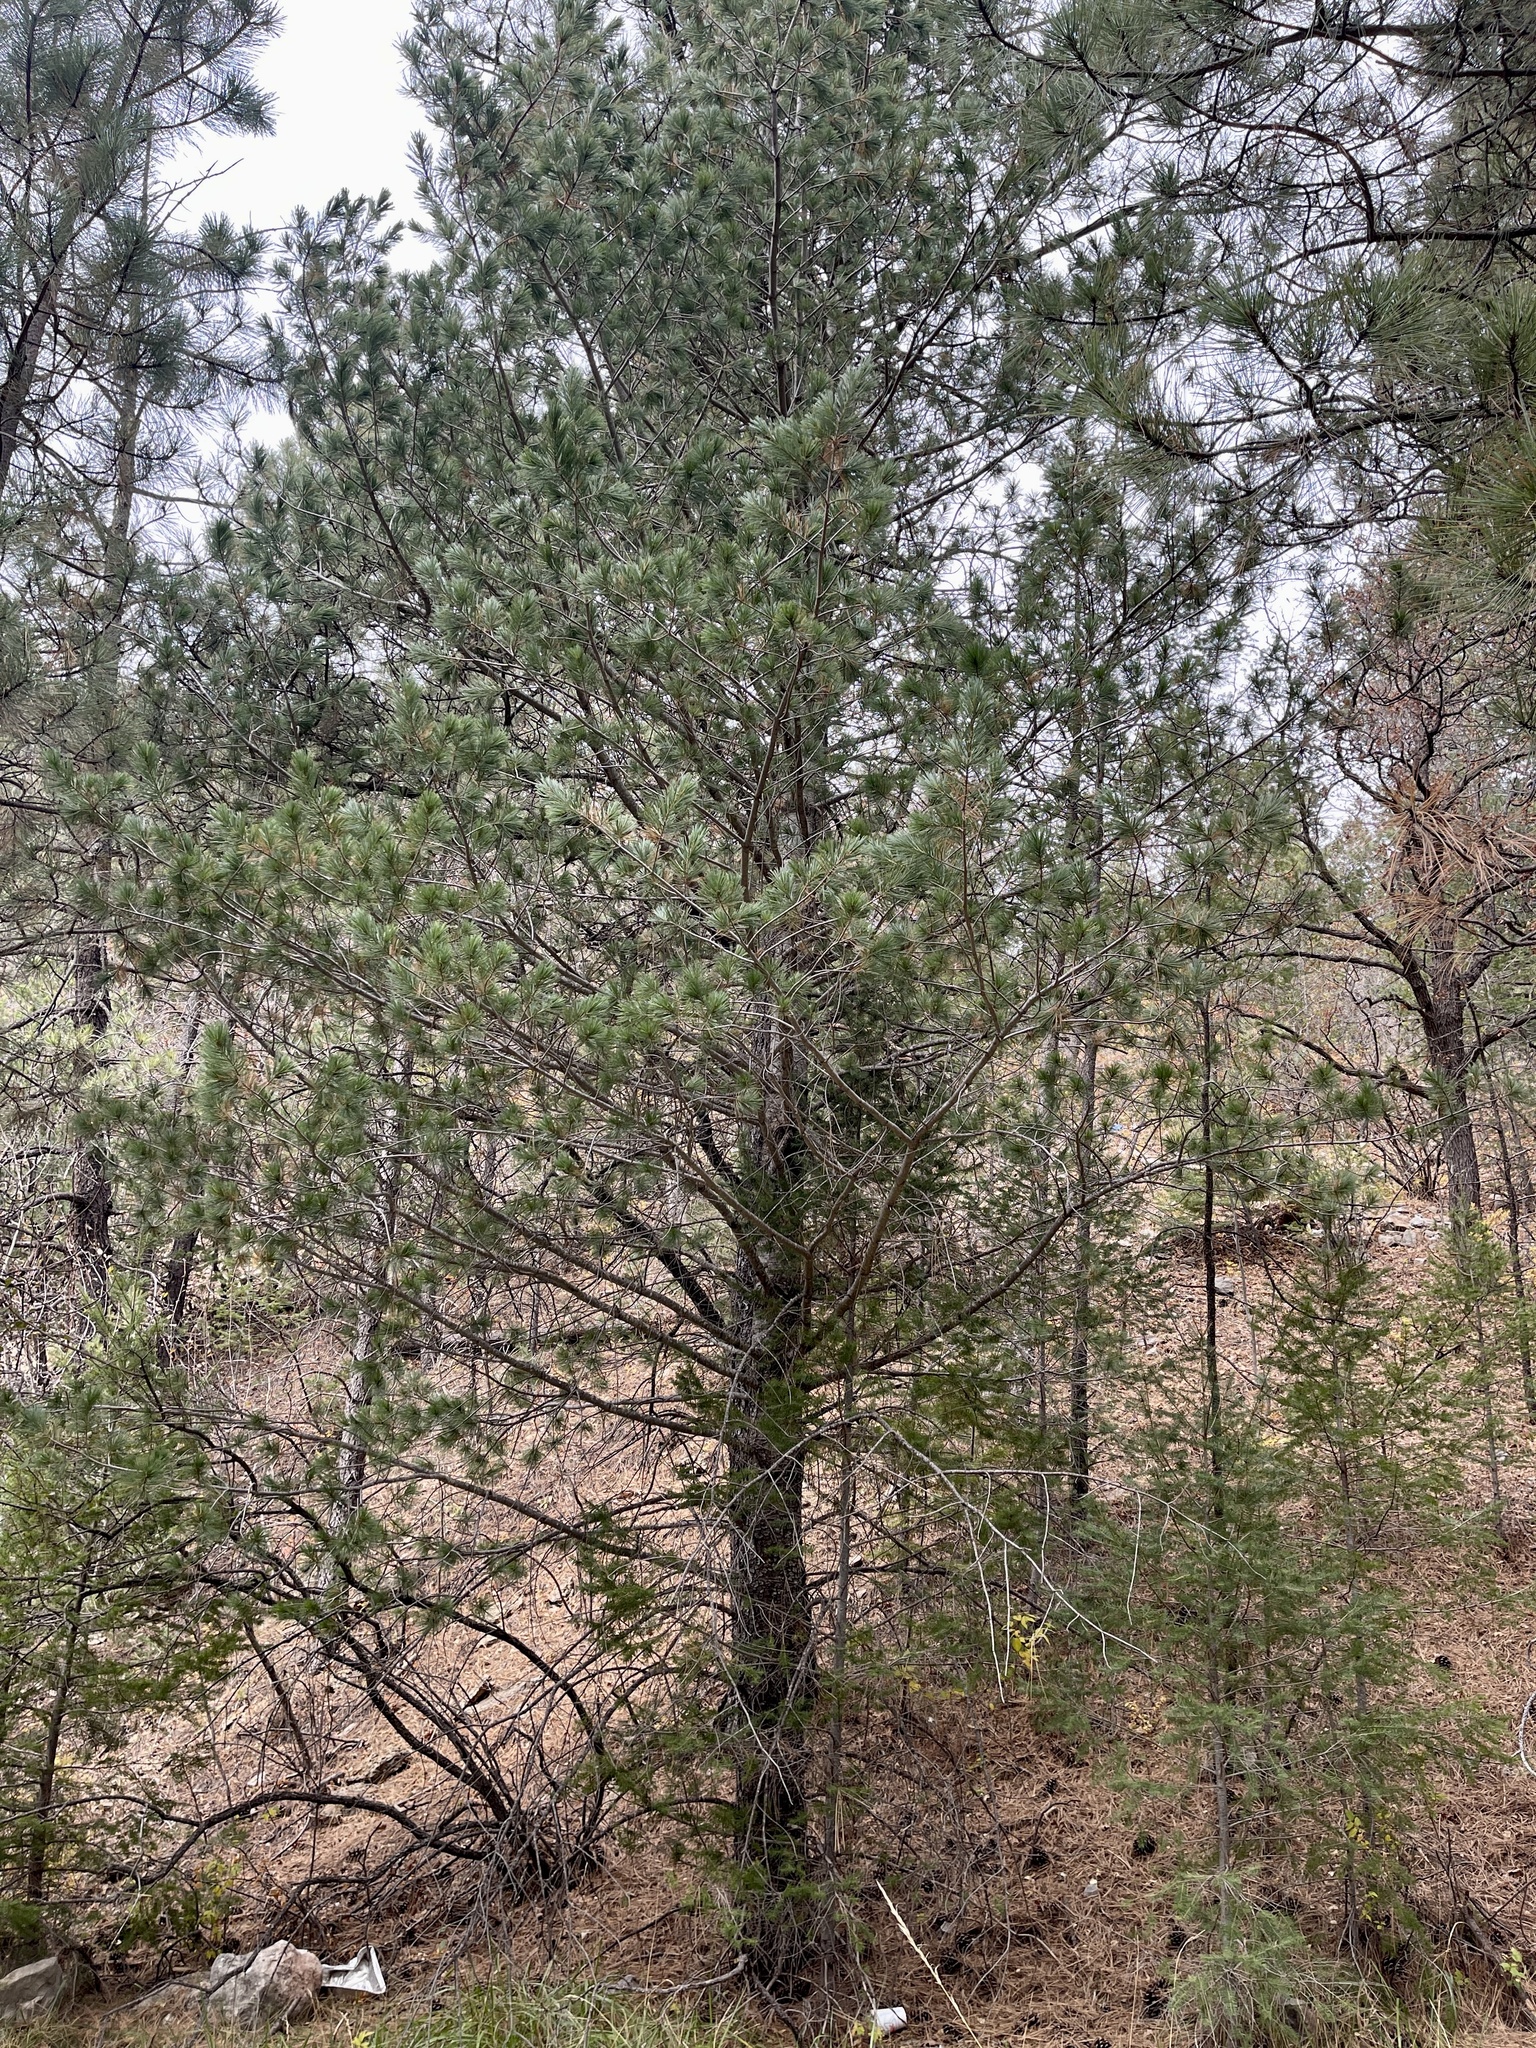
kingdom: Plantae
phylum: Tracheophyta
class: Pinopsida
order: Pinales
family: Pinaceae
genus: Pinus
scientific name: Pinus strobiformis
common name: Southwestern white pine
